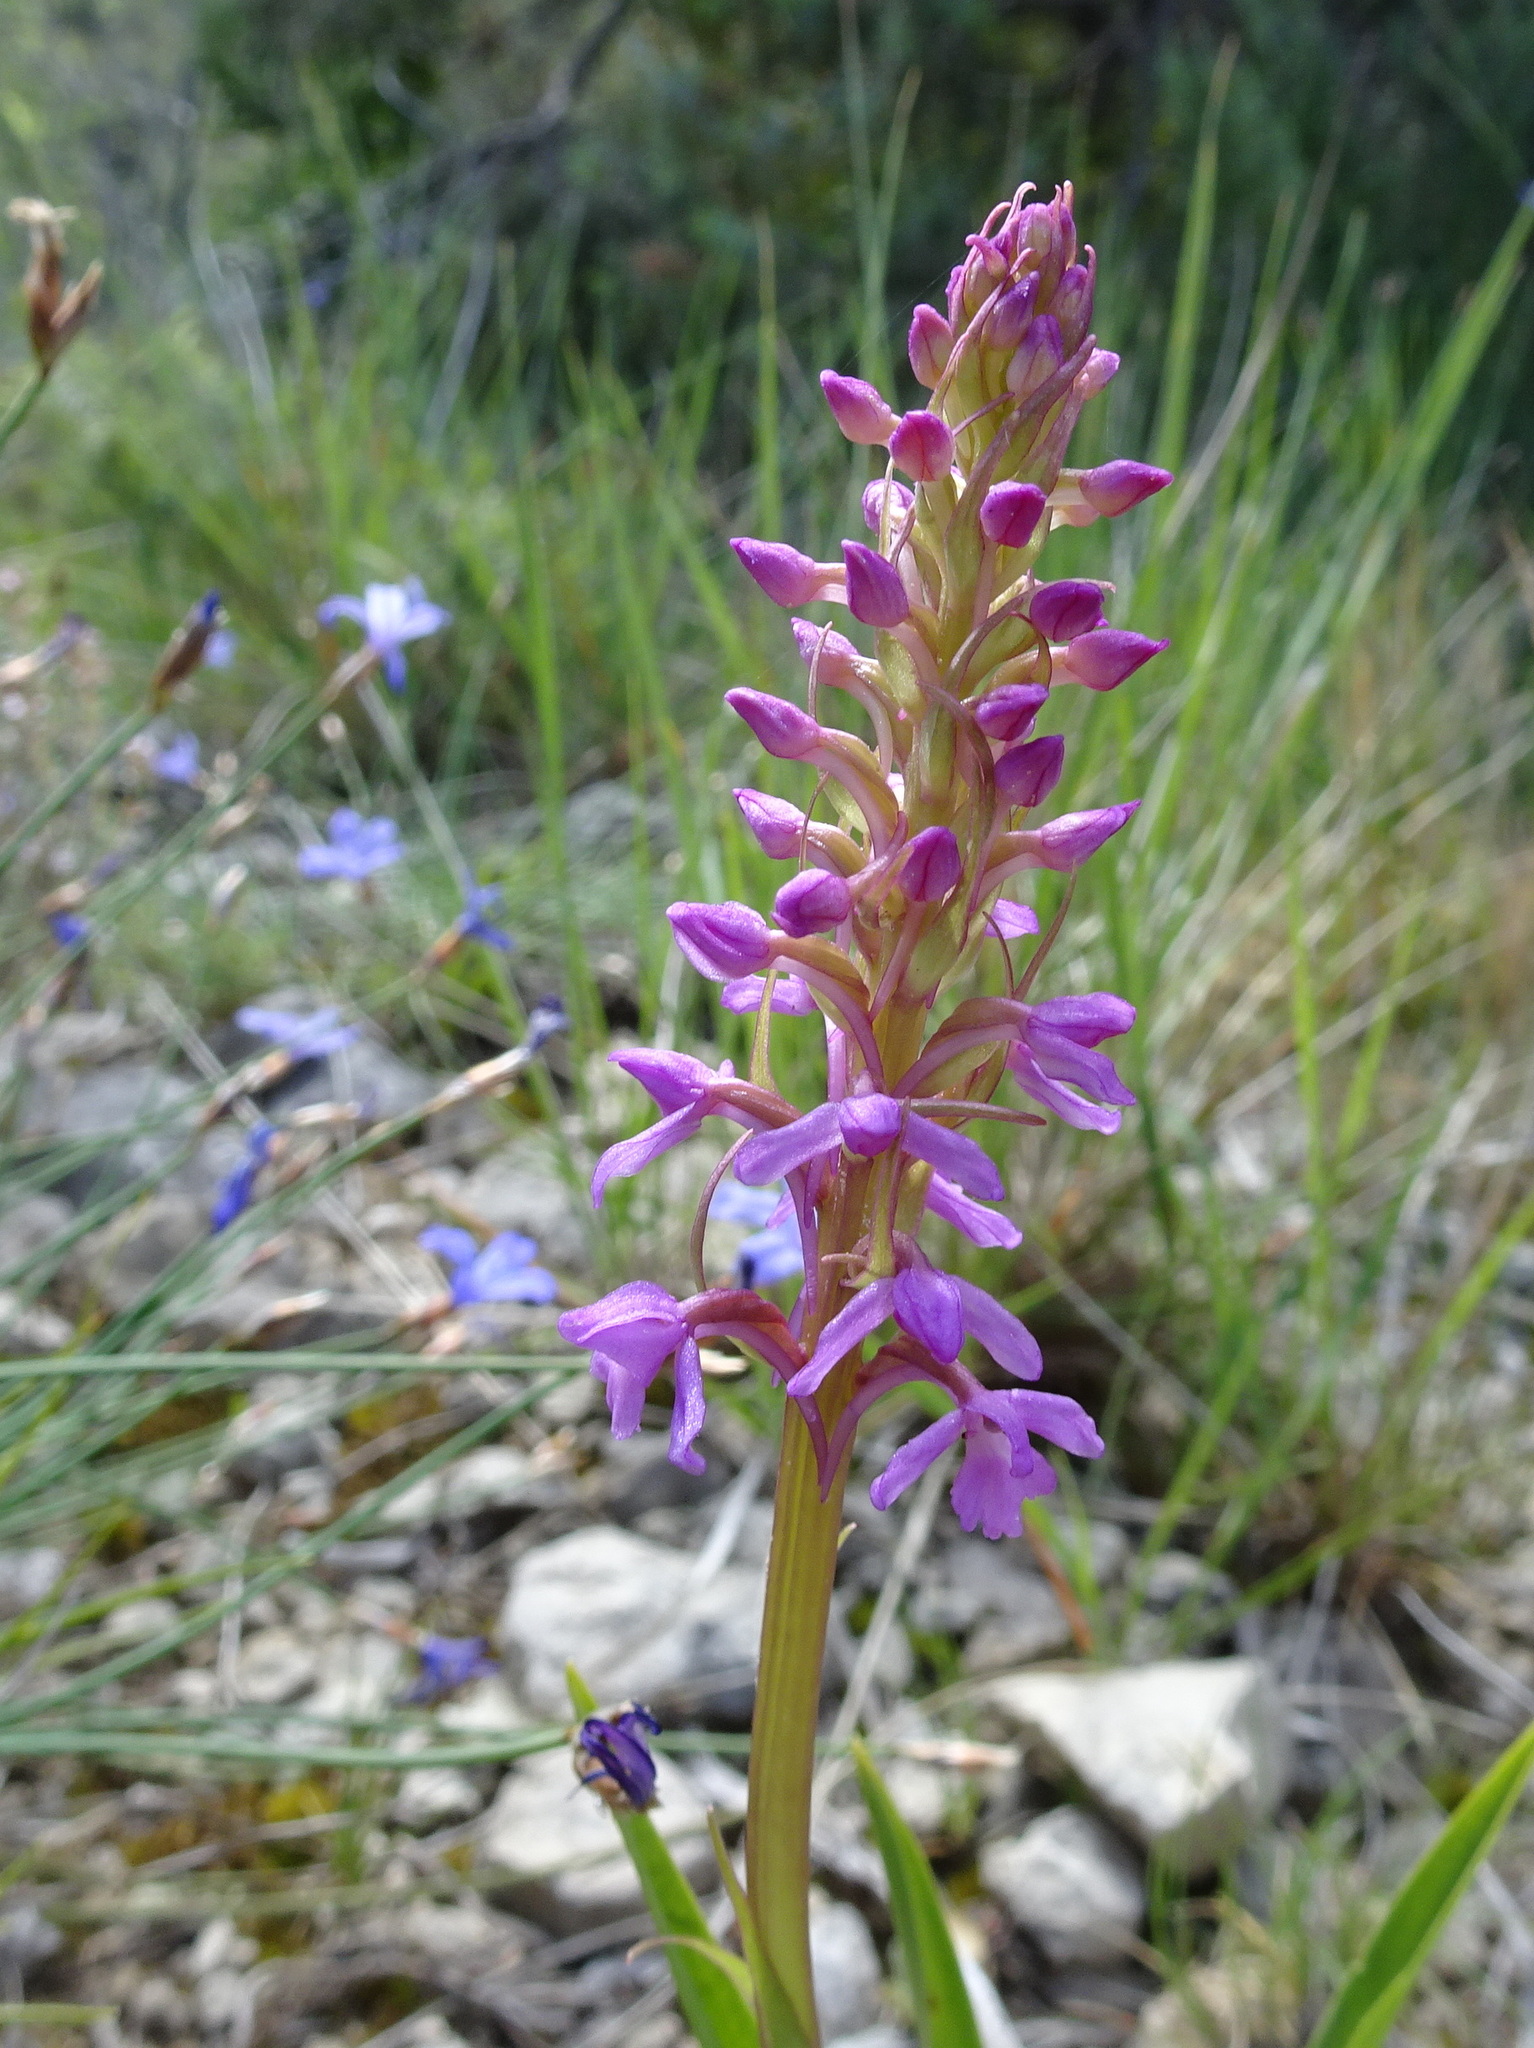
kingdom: Plantae
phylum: Tracheophyta
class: Liliopsida
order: Asparagales
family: Orchidaceae
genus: Gymnadenia
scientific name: Gymnadenia conopsea
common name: Fragrant orchid
